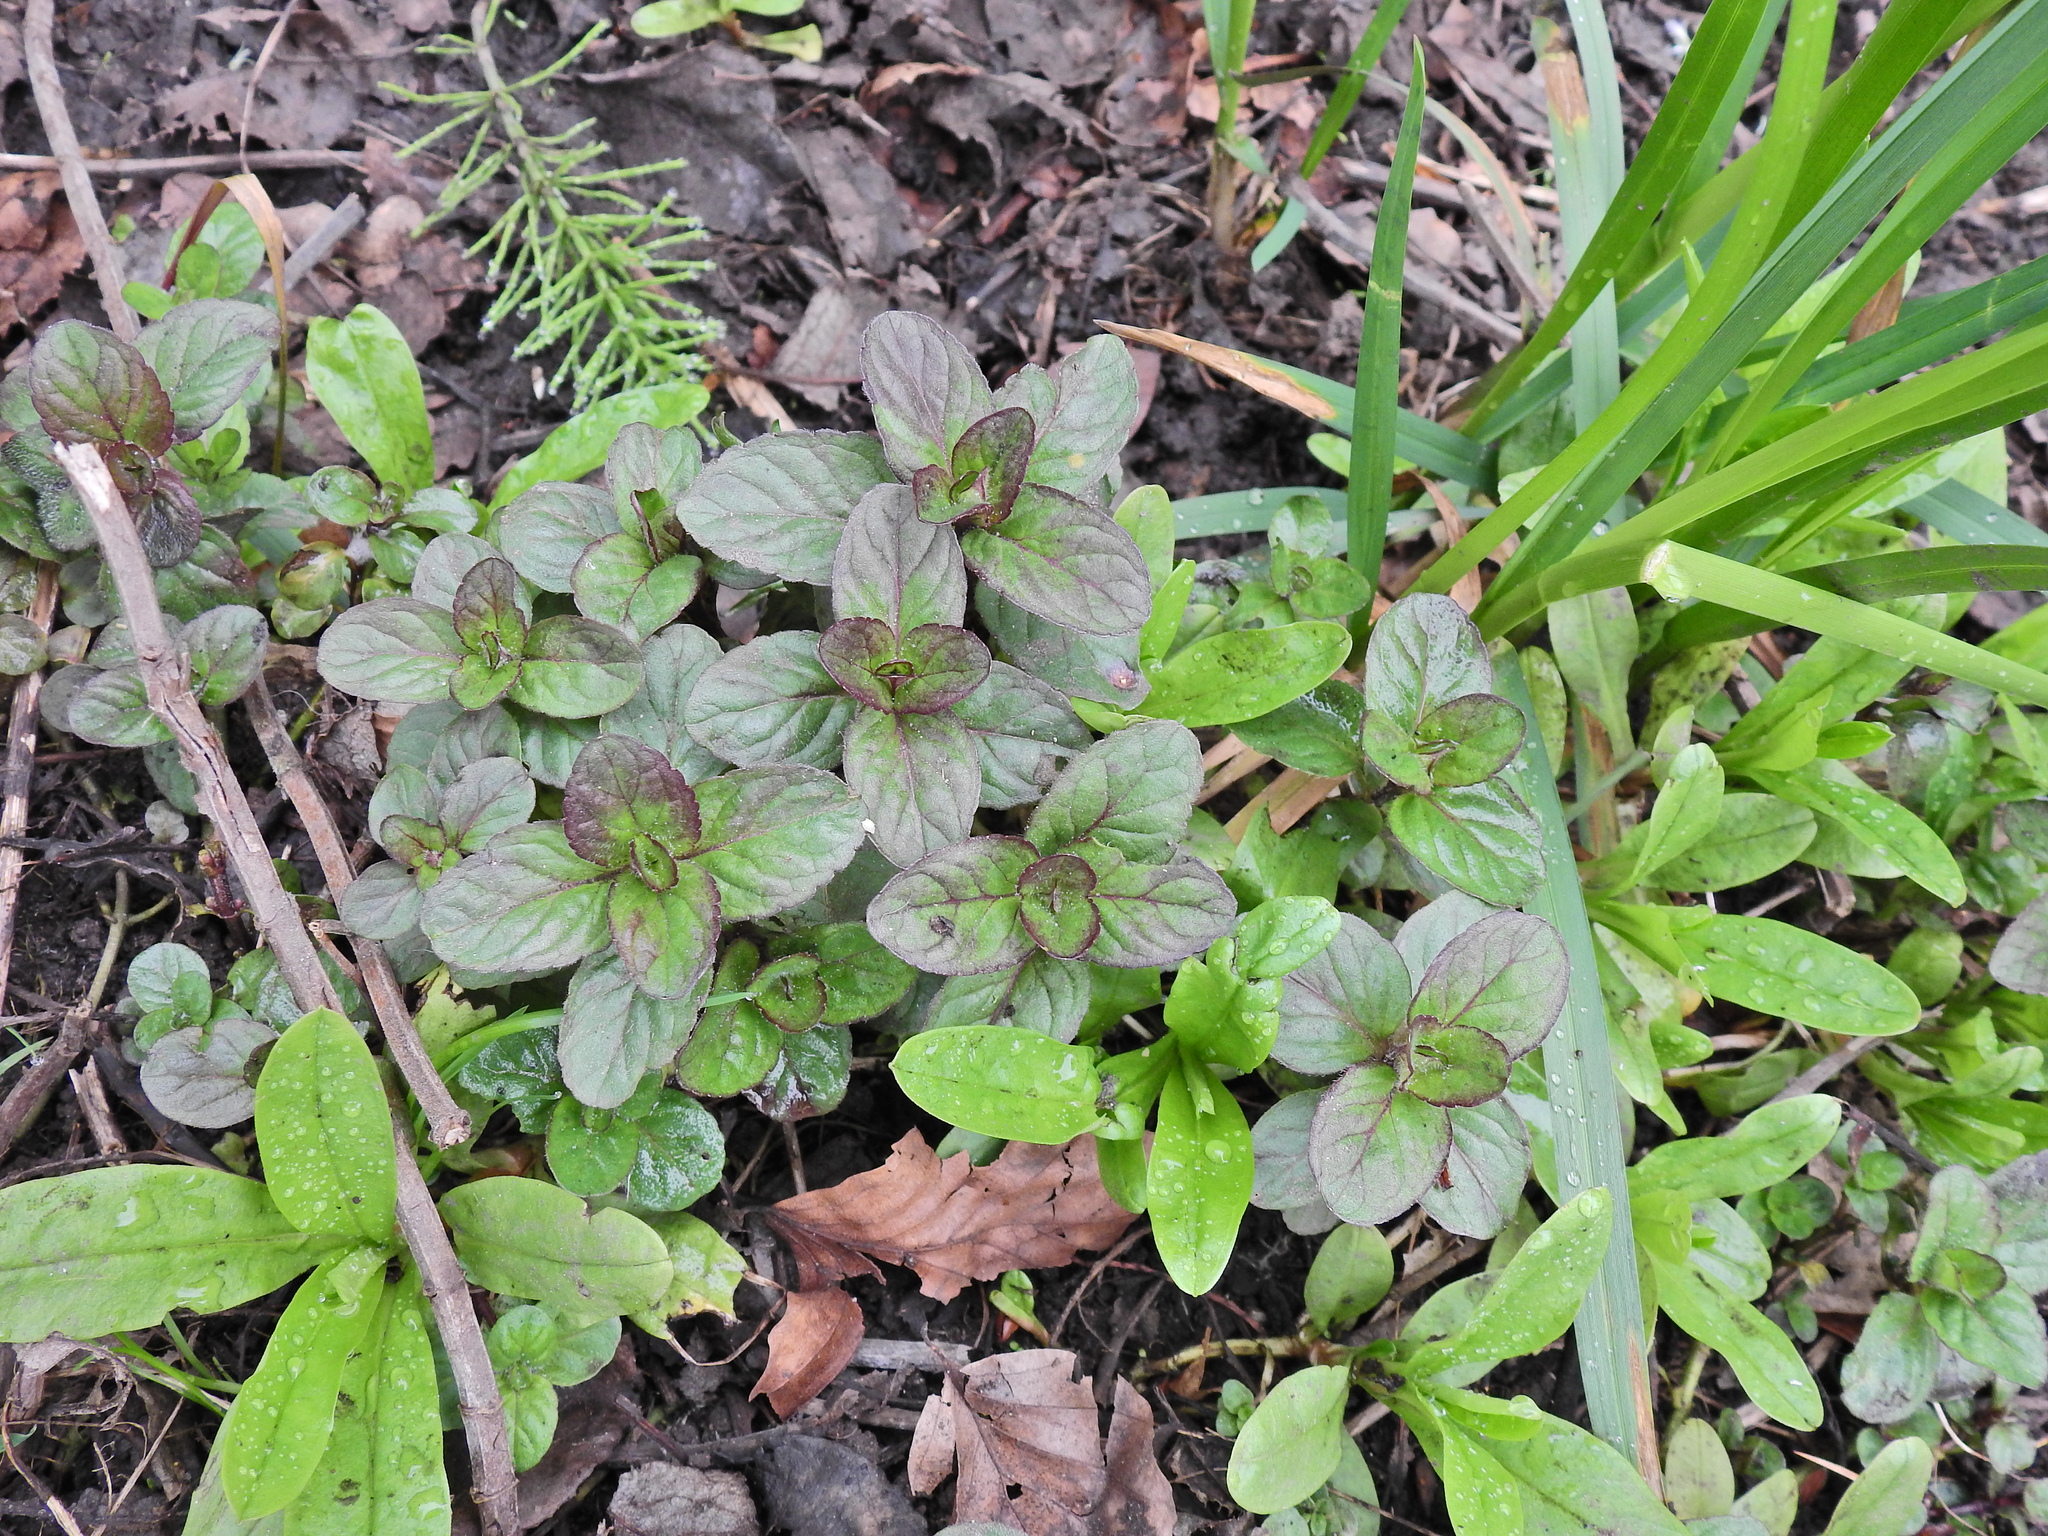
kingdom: Plantae
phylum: Tracheophyta
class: Magnoliopsida
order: Lamiales
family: Lamiaceae
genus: Mentha
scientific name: Mentha aquatica
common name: Water mint
